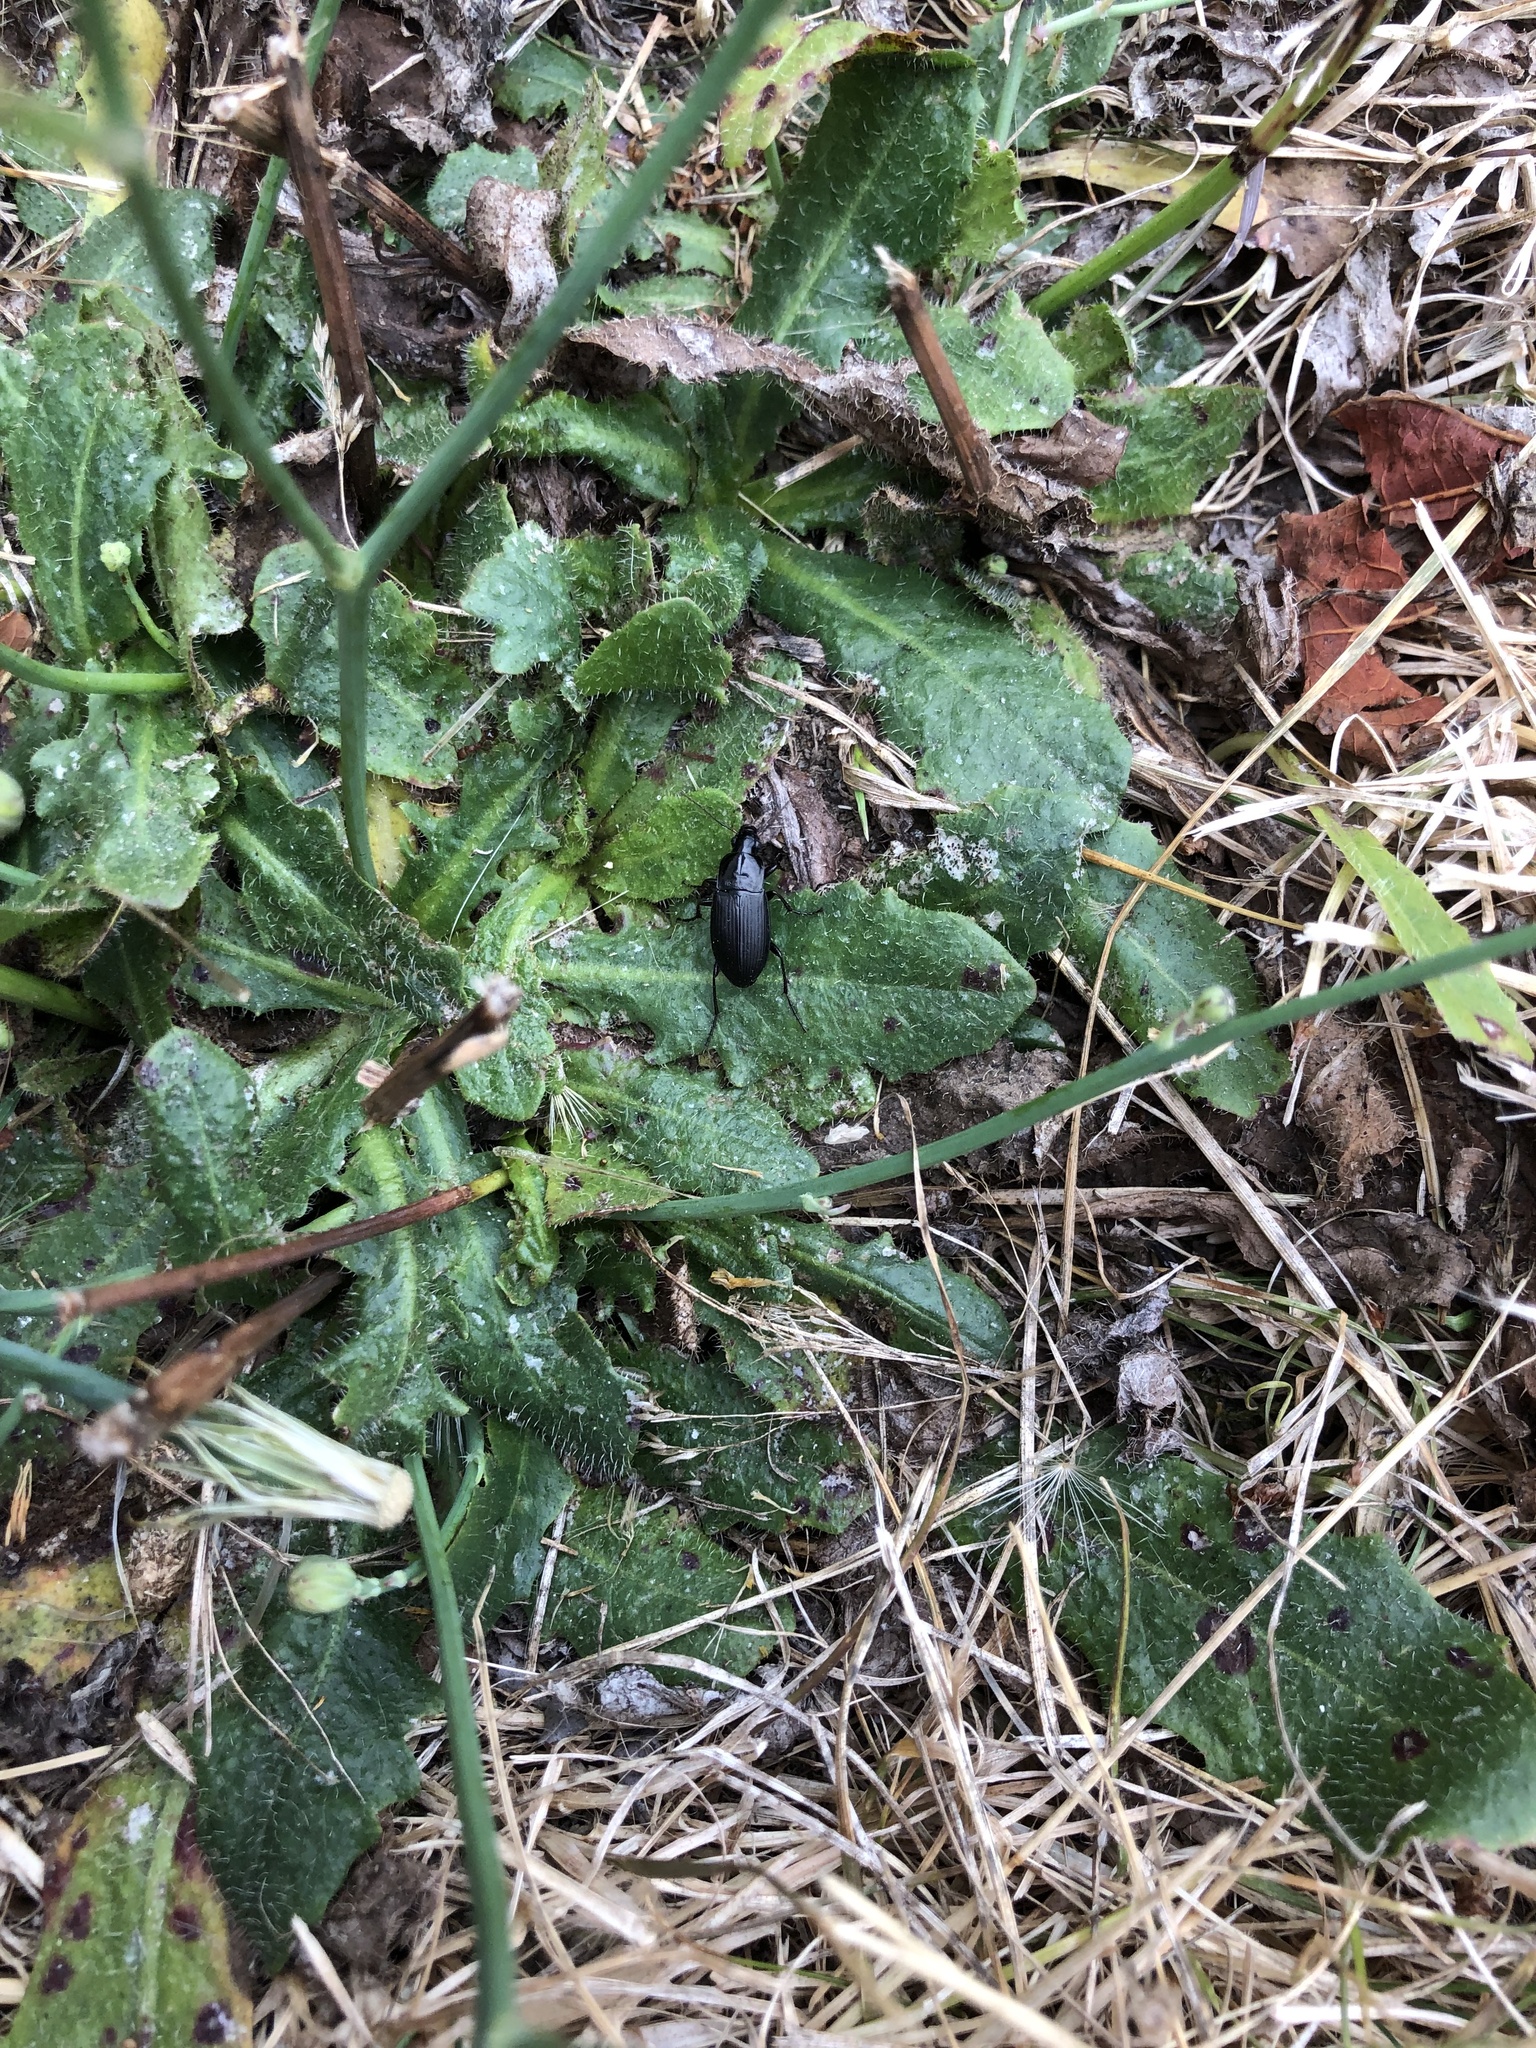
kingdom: Animalia
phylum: Arthropoda
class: Insecta
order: Coleoptera
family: Carabidae
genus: Calathus
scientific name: Calathus fuscipes
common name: Dark-footed harp ground beetle
